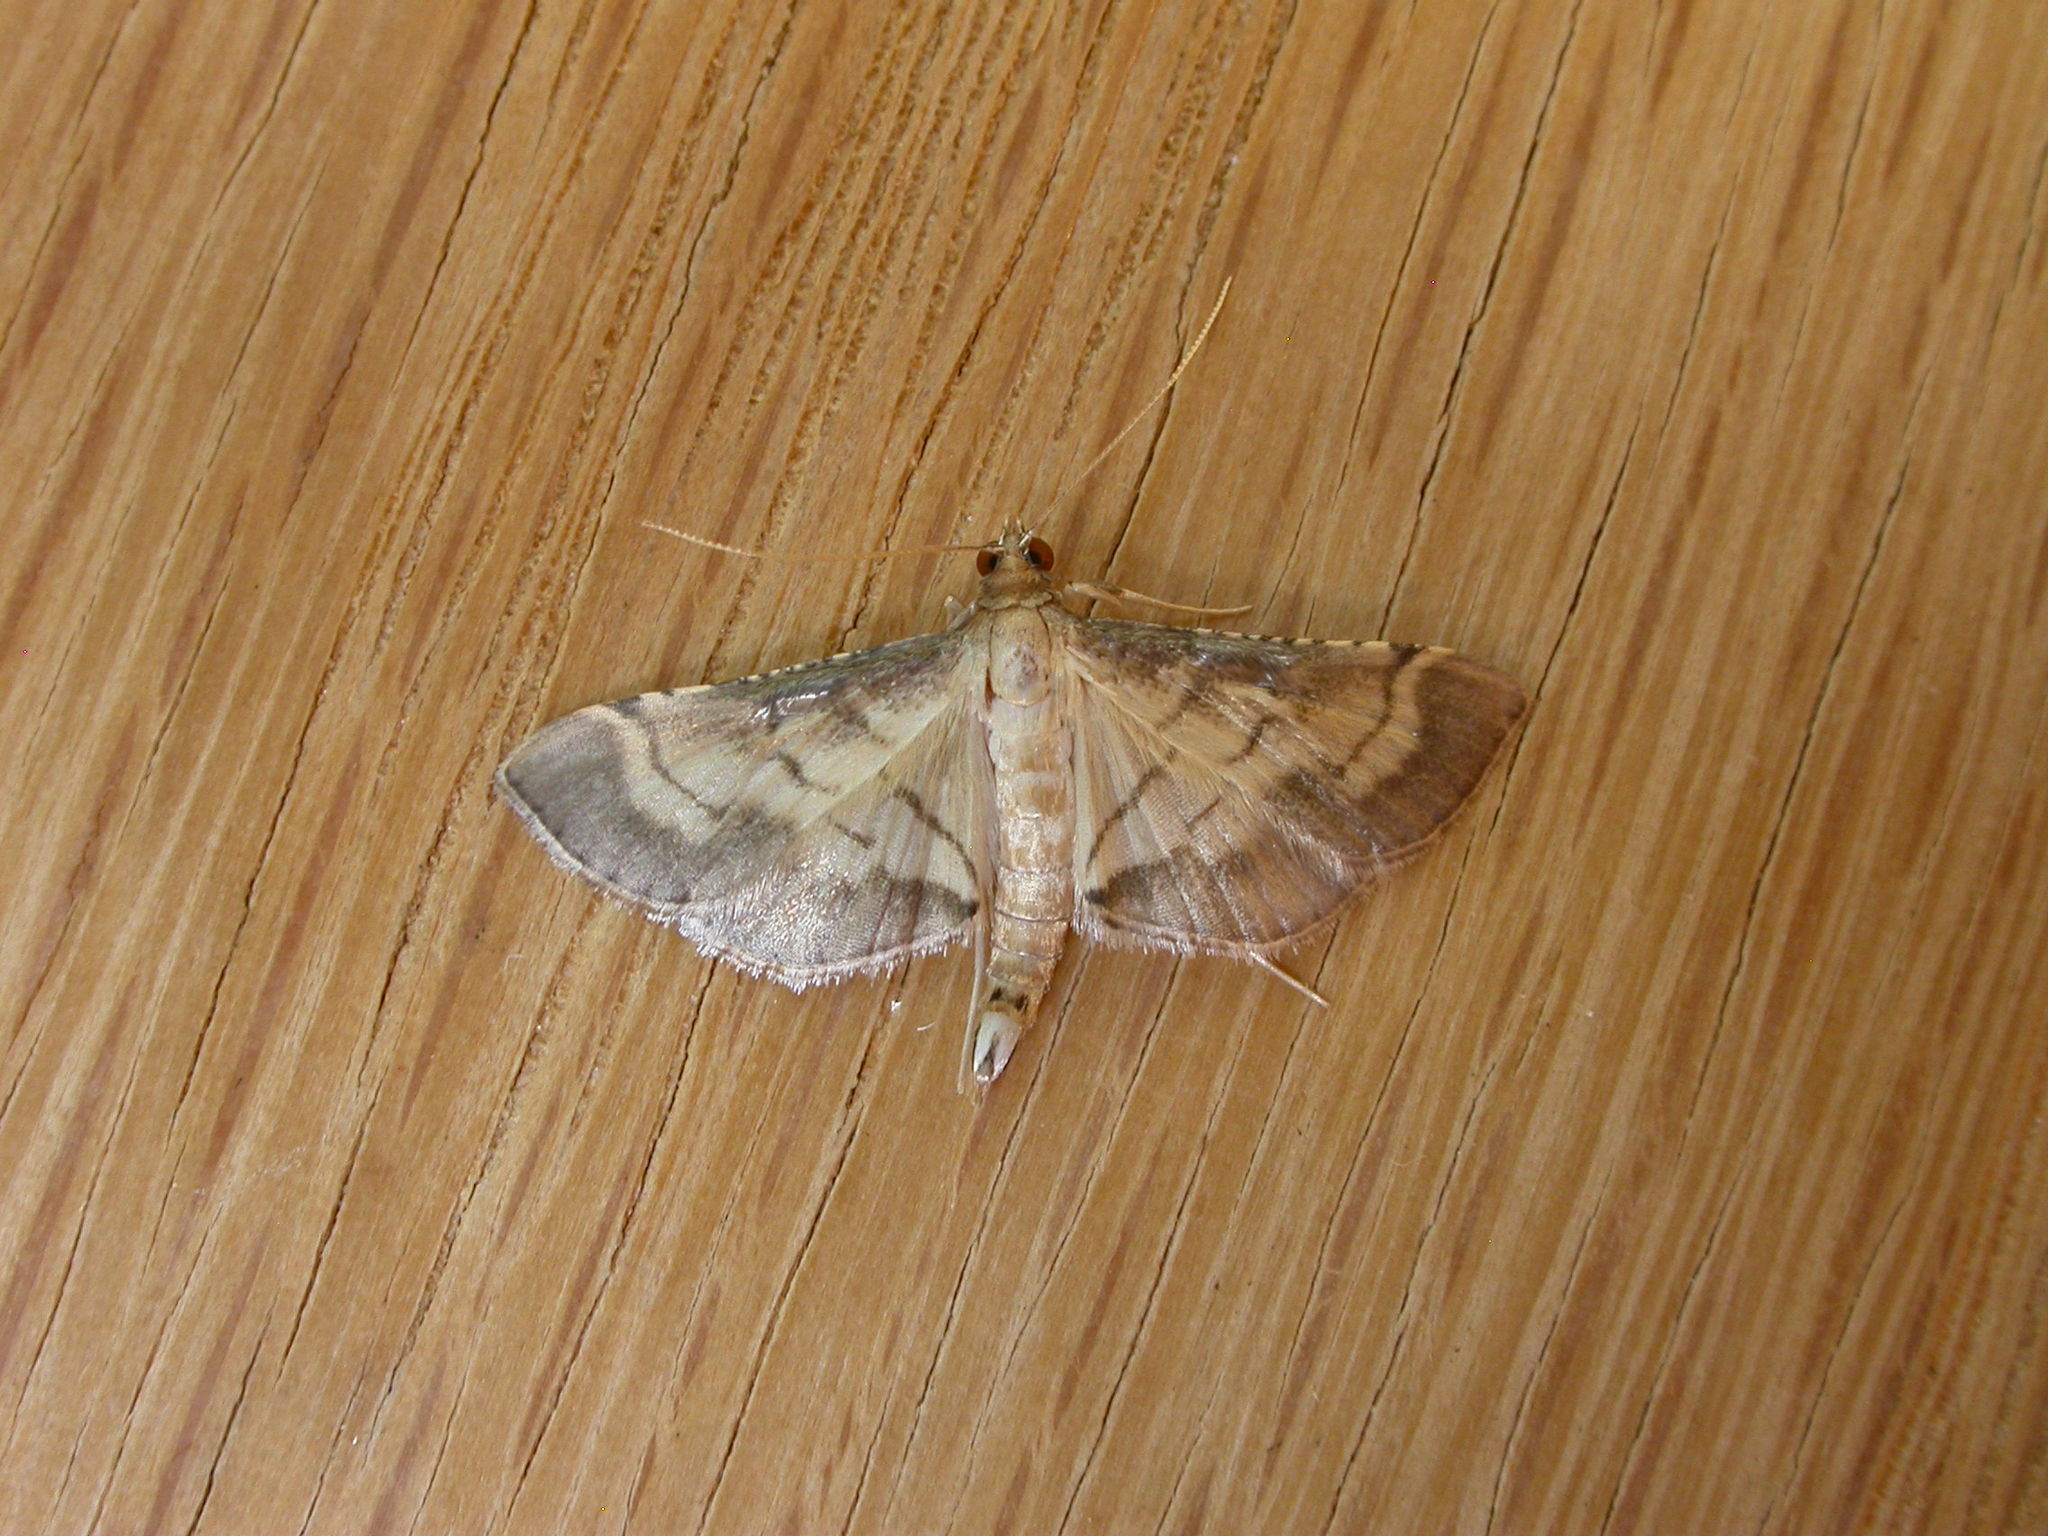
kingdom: Animalia
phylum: Arthropoda
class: Insecta
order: Lepidoptera
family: Crambidae
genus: Cnaphalocrocis
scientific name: Cnaphalocrocis poeyalis
